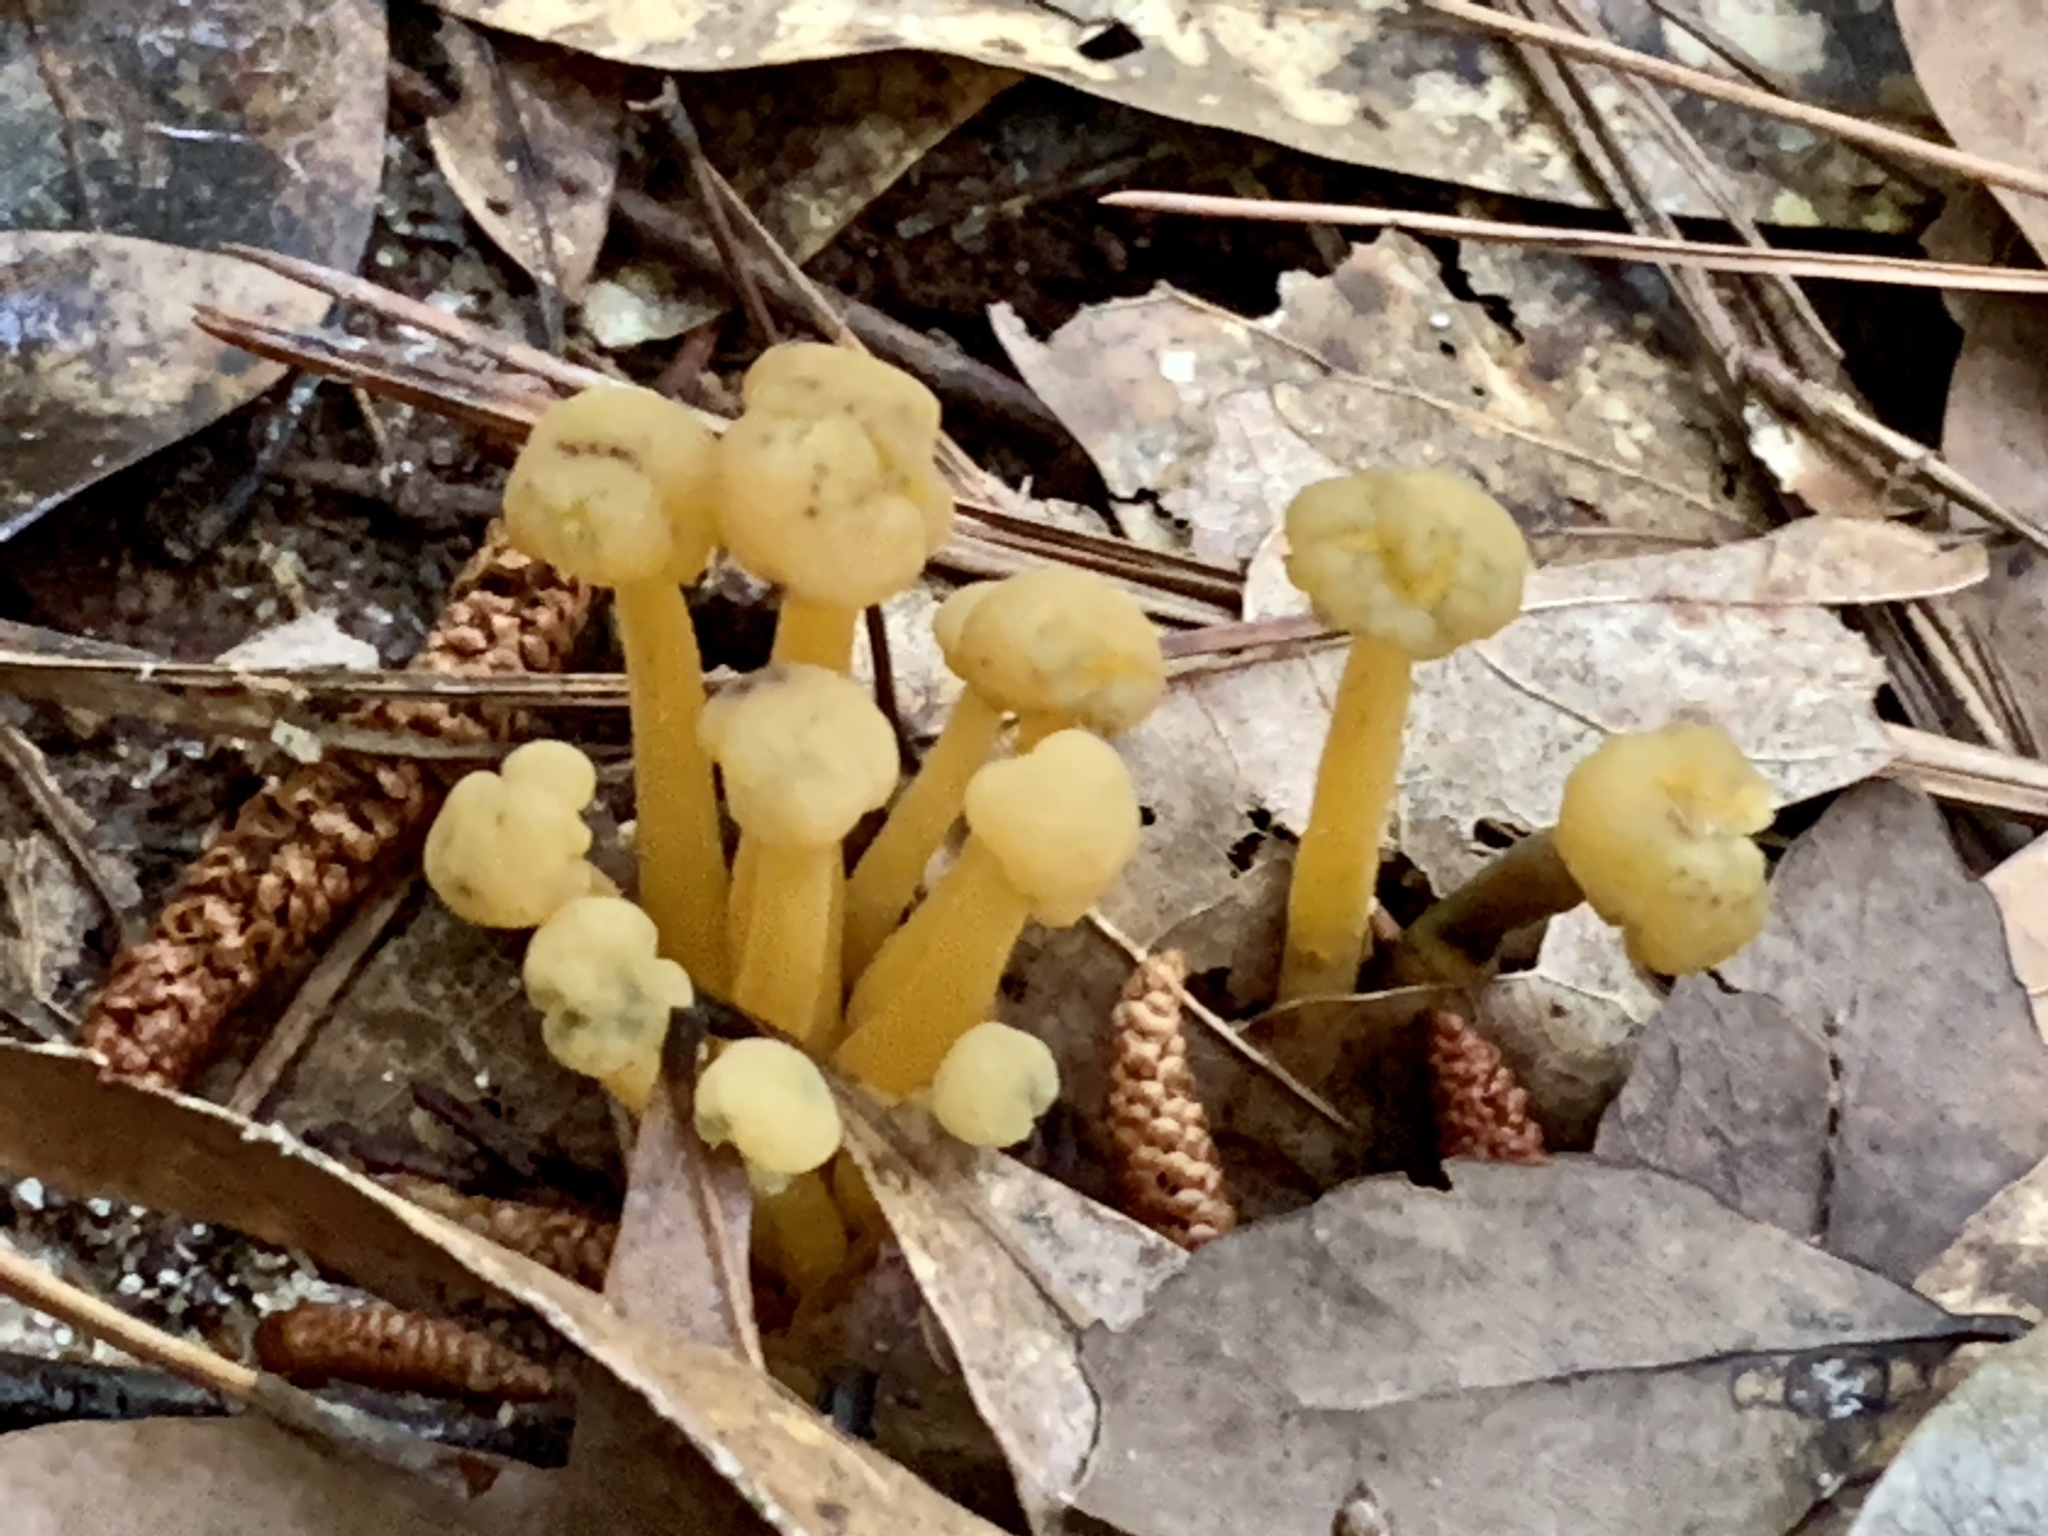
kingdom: Fungi
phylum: Ascomycota
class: Leotiomycetes
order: Leotiales
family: Leotiaceae
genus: Leotia
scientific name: Leotia lubrica
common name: Jellybaby
